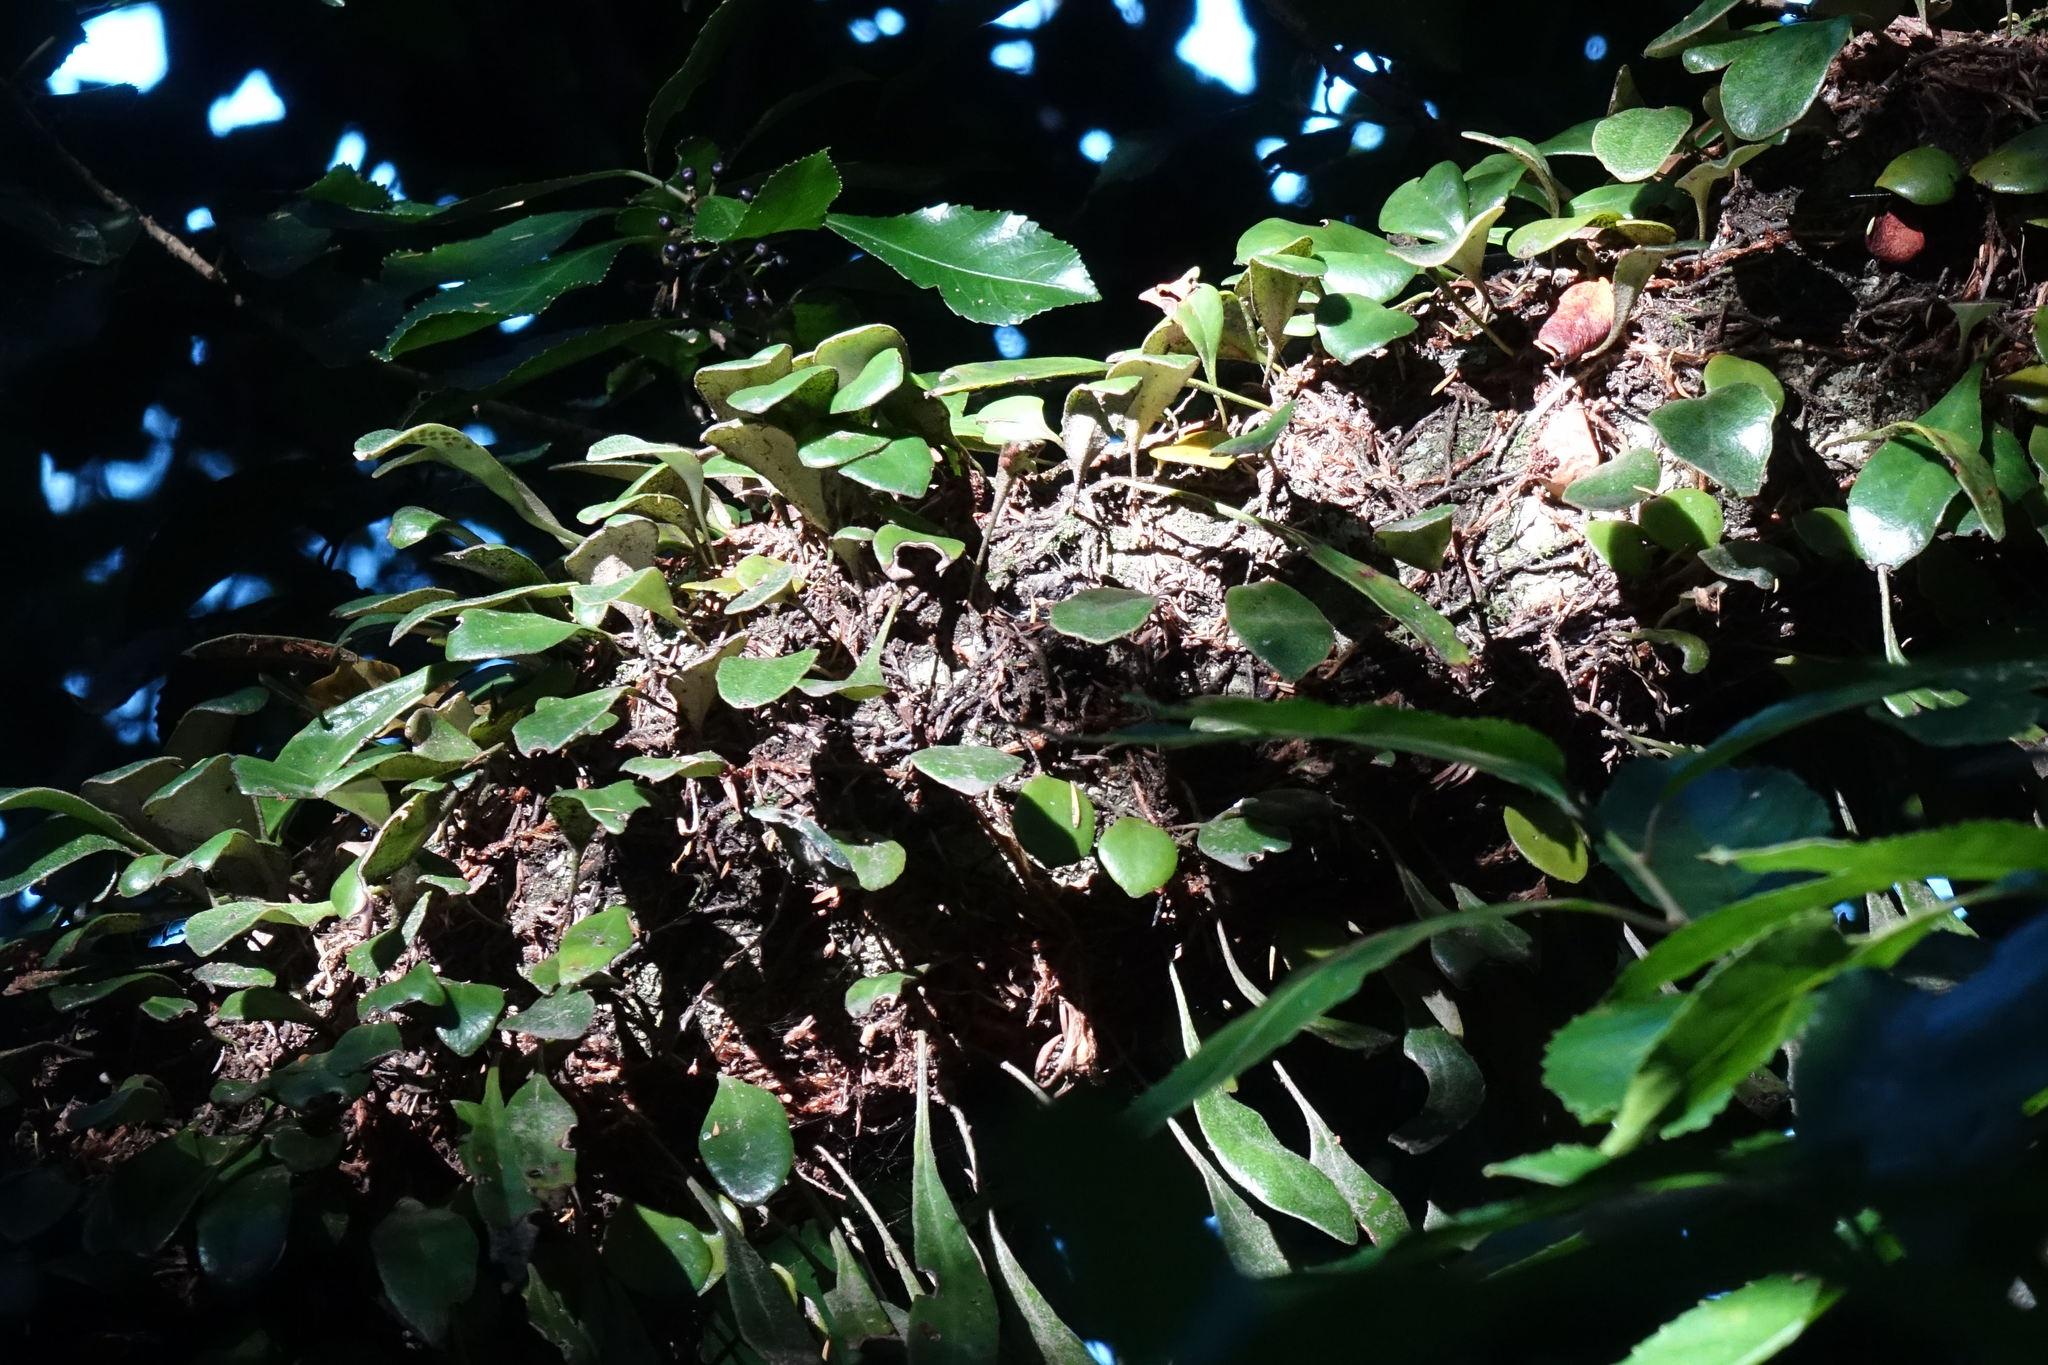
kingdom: Plantae
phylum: Tracheophyta
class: Polypodiopsida
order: Polypodiales
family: Polypodiaceae
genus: Pyrrosia
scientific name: Pyrrosia eleagnifolia
